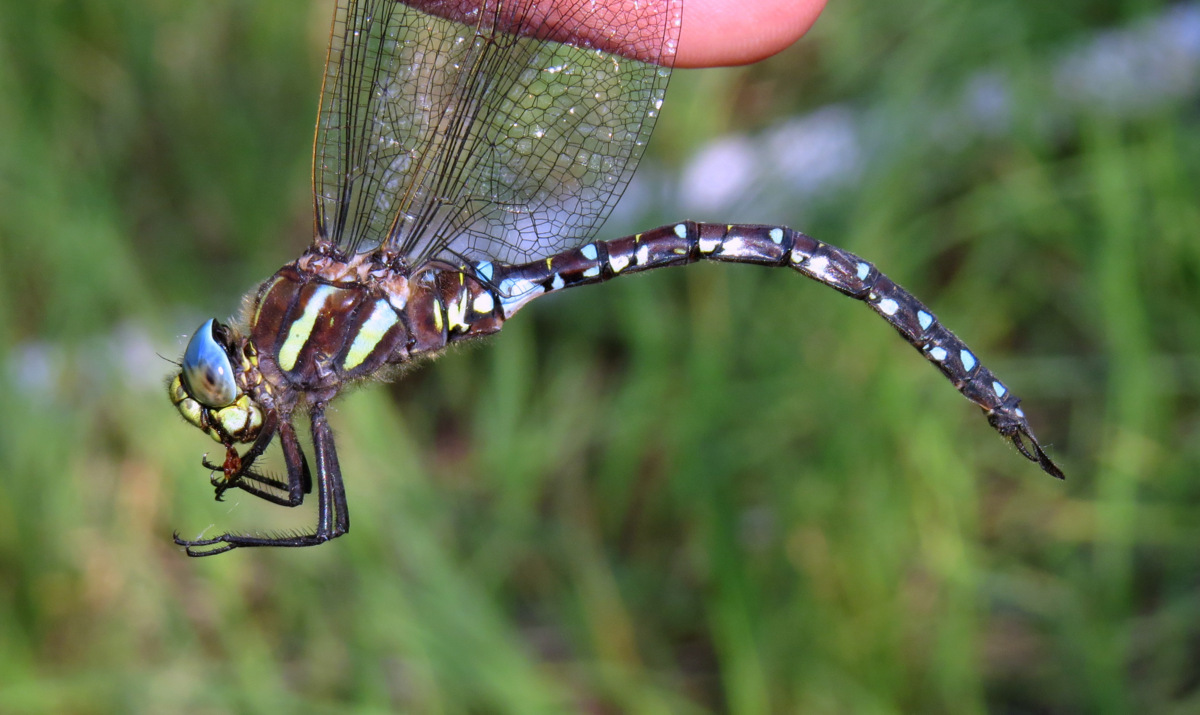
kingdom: Animalia
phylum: Arthropoda
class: Insecta
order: Odonata
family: Aeshnidae
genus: Aeshna
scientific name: Aeshna juncea
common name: Moorland hawker
